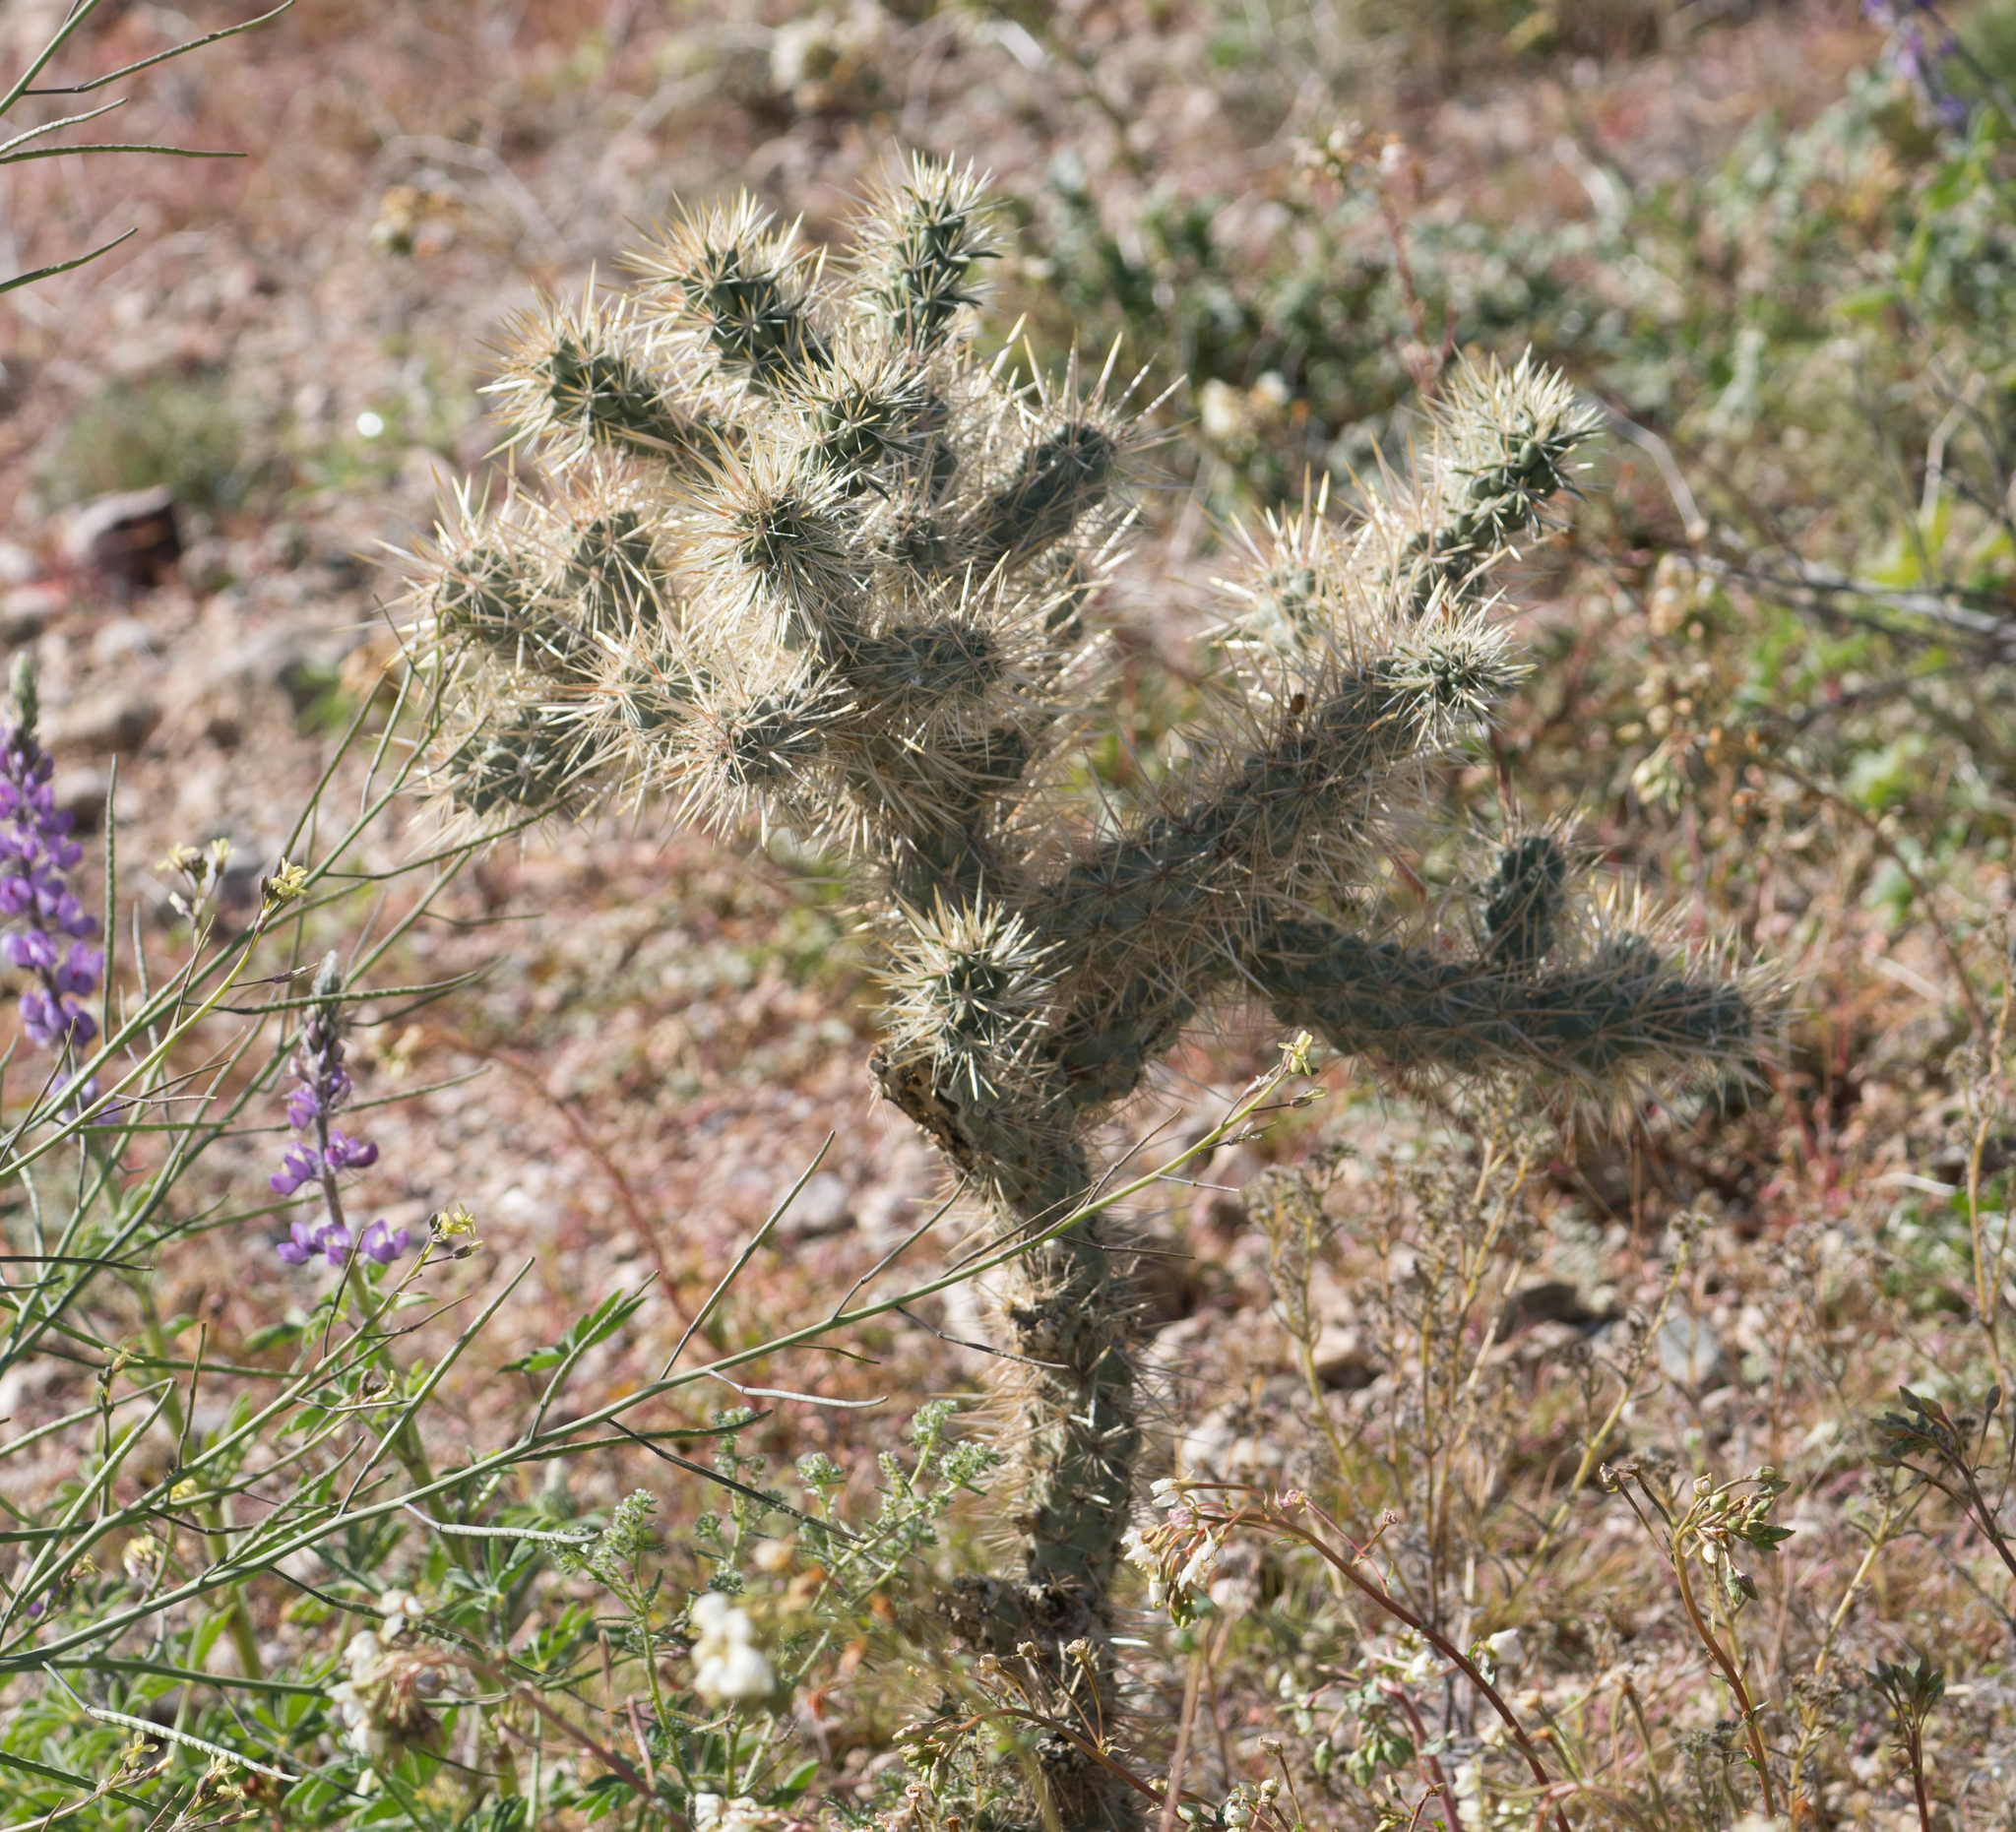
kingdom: Plantae
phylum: Tracheophyta
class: Magnoliopsida
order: Caryophyllales
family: Cactaceae
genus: Cylindropuntia
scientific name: Cylindropuntia echinocarpa
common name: Ground cholla
